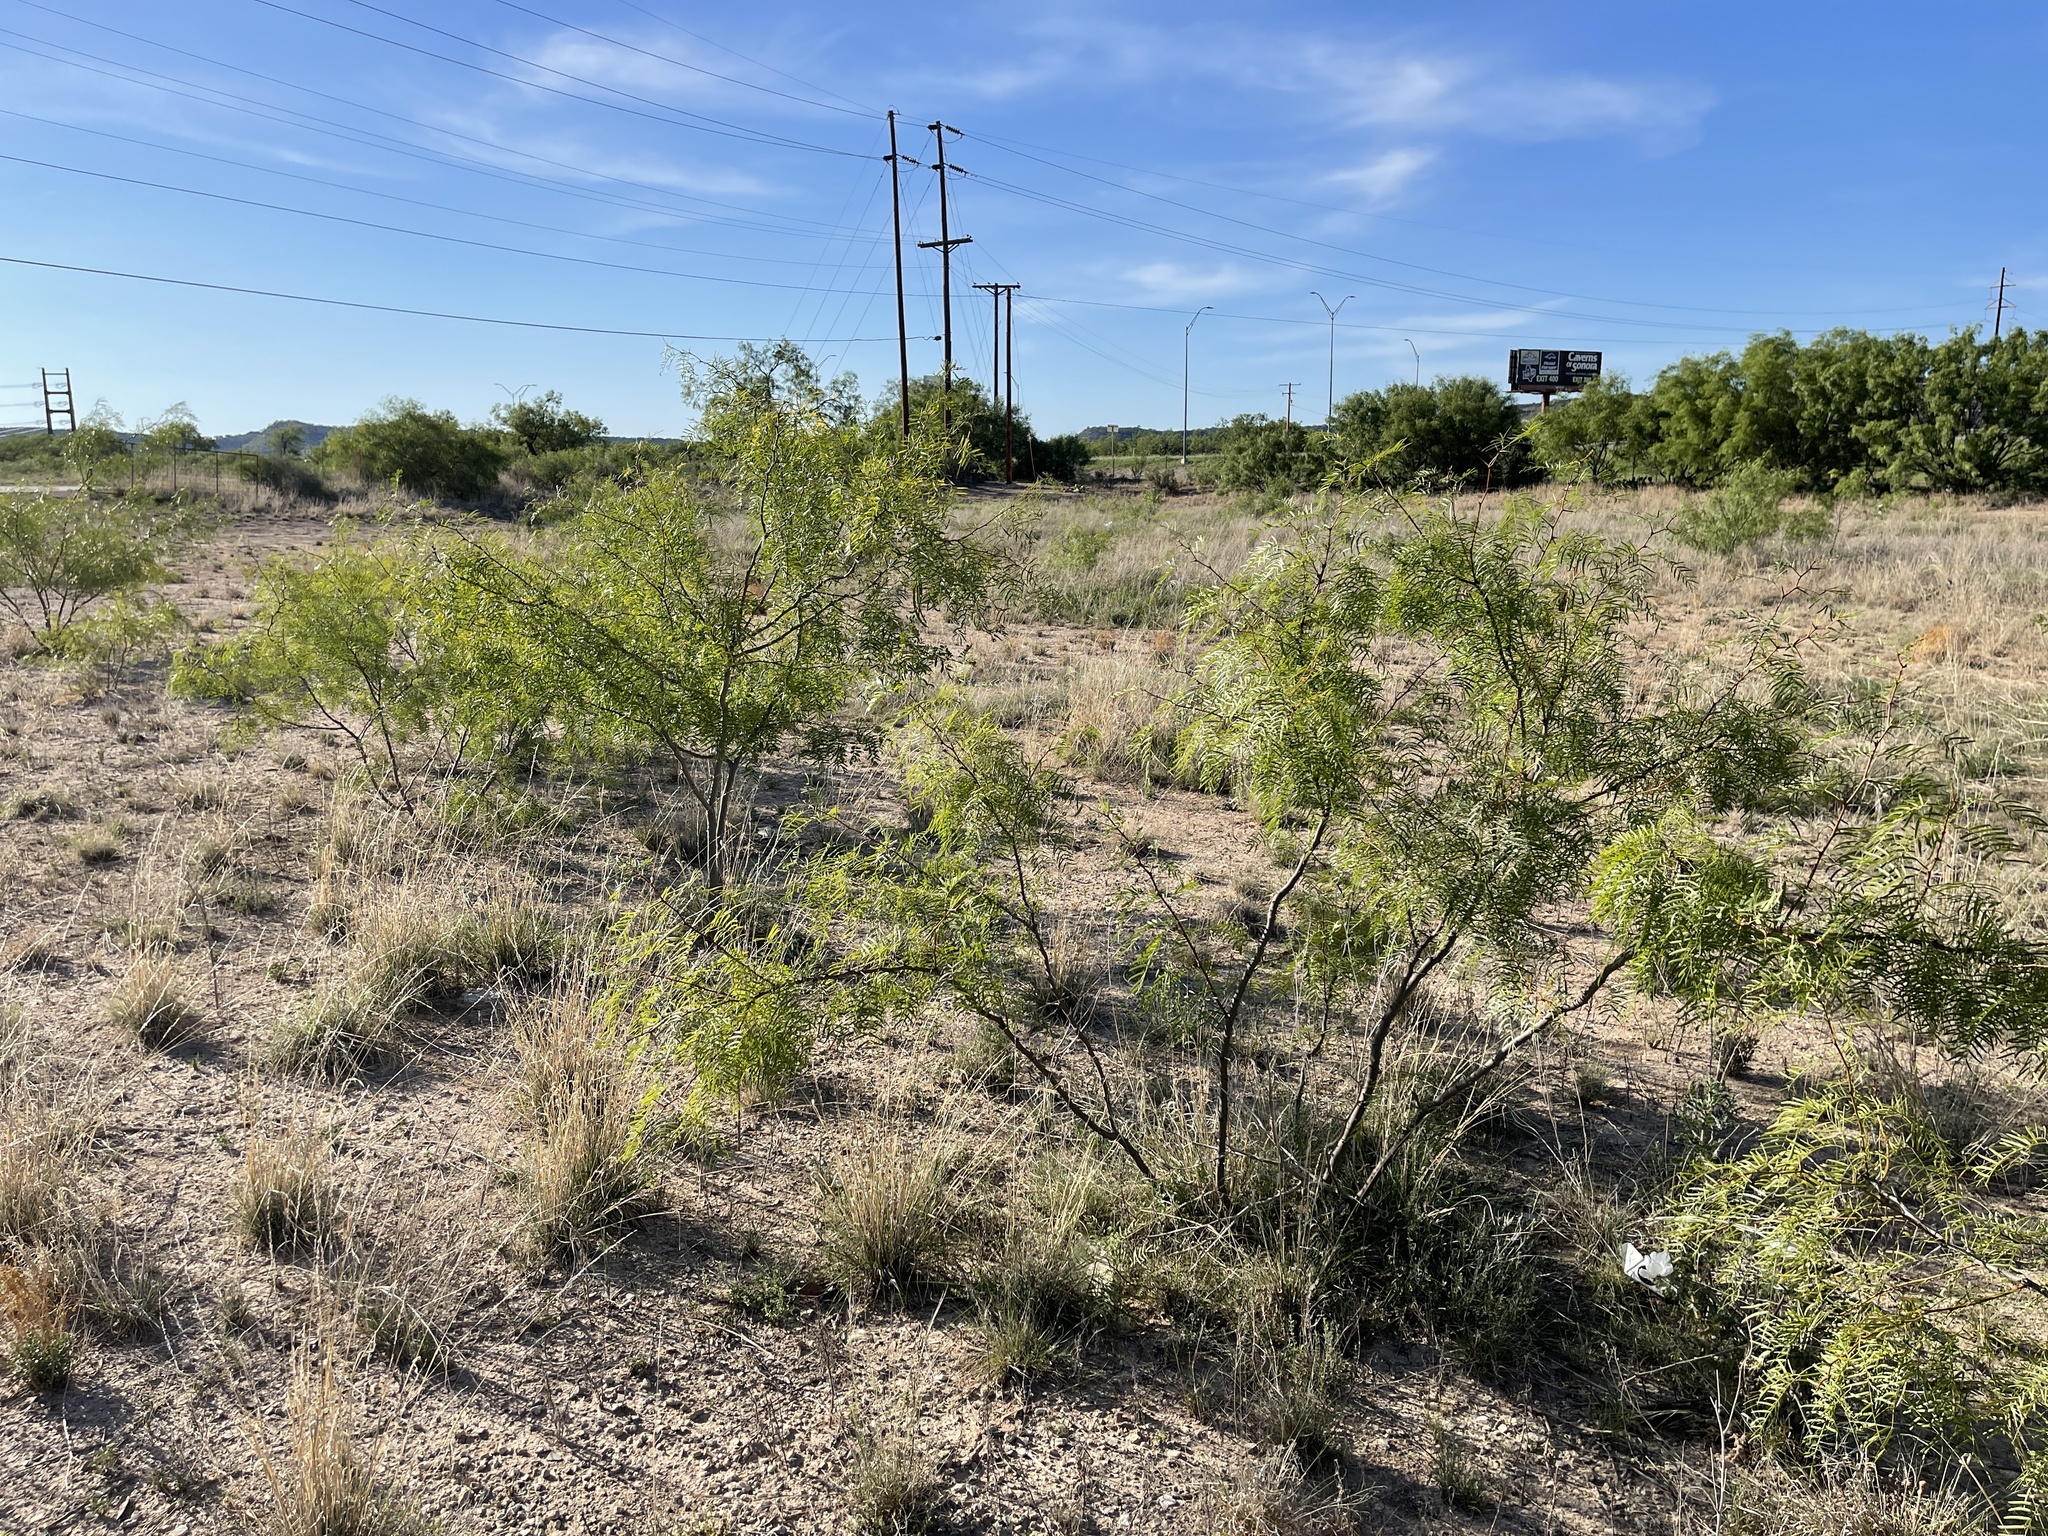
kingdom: Plantae
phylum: Tracheophyta
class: Magnoliopsida
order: Fabales
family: Fabaceae
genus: Prosopis
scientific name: Prosopis glandulosa
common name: Honey mesquite
